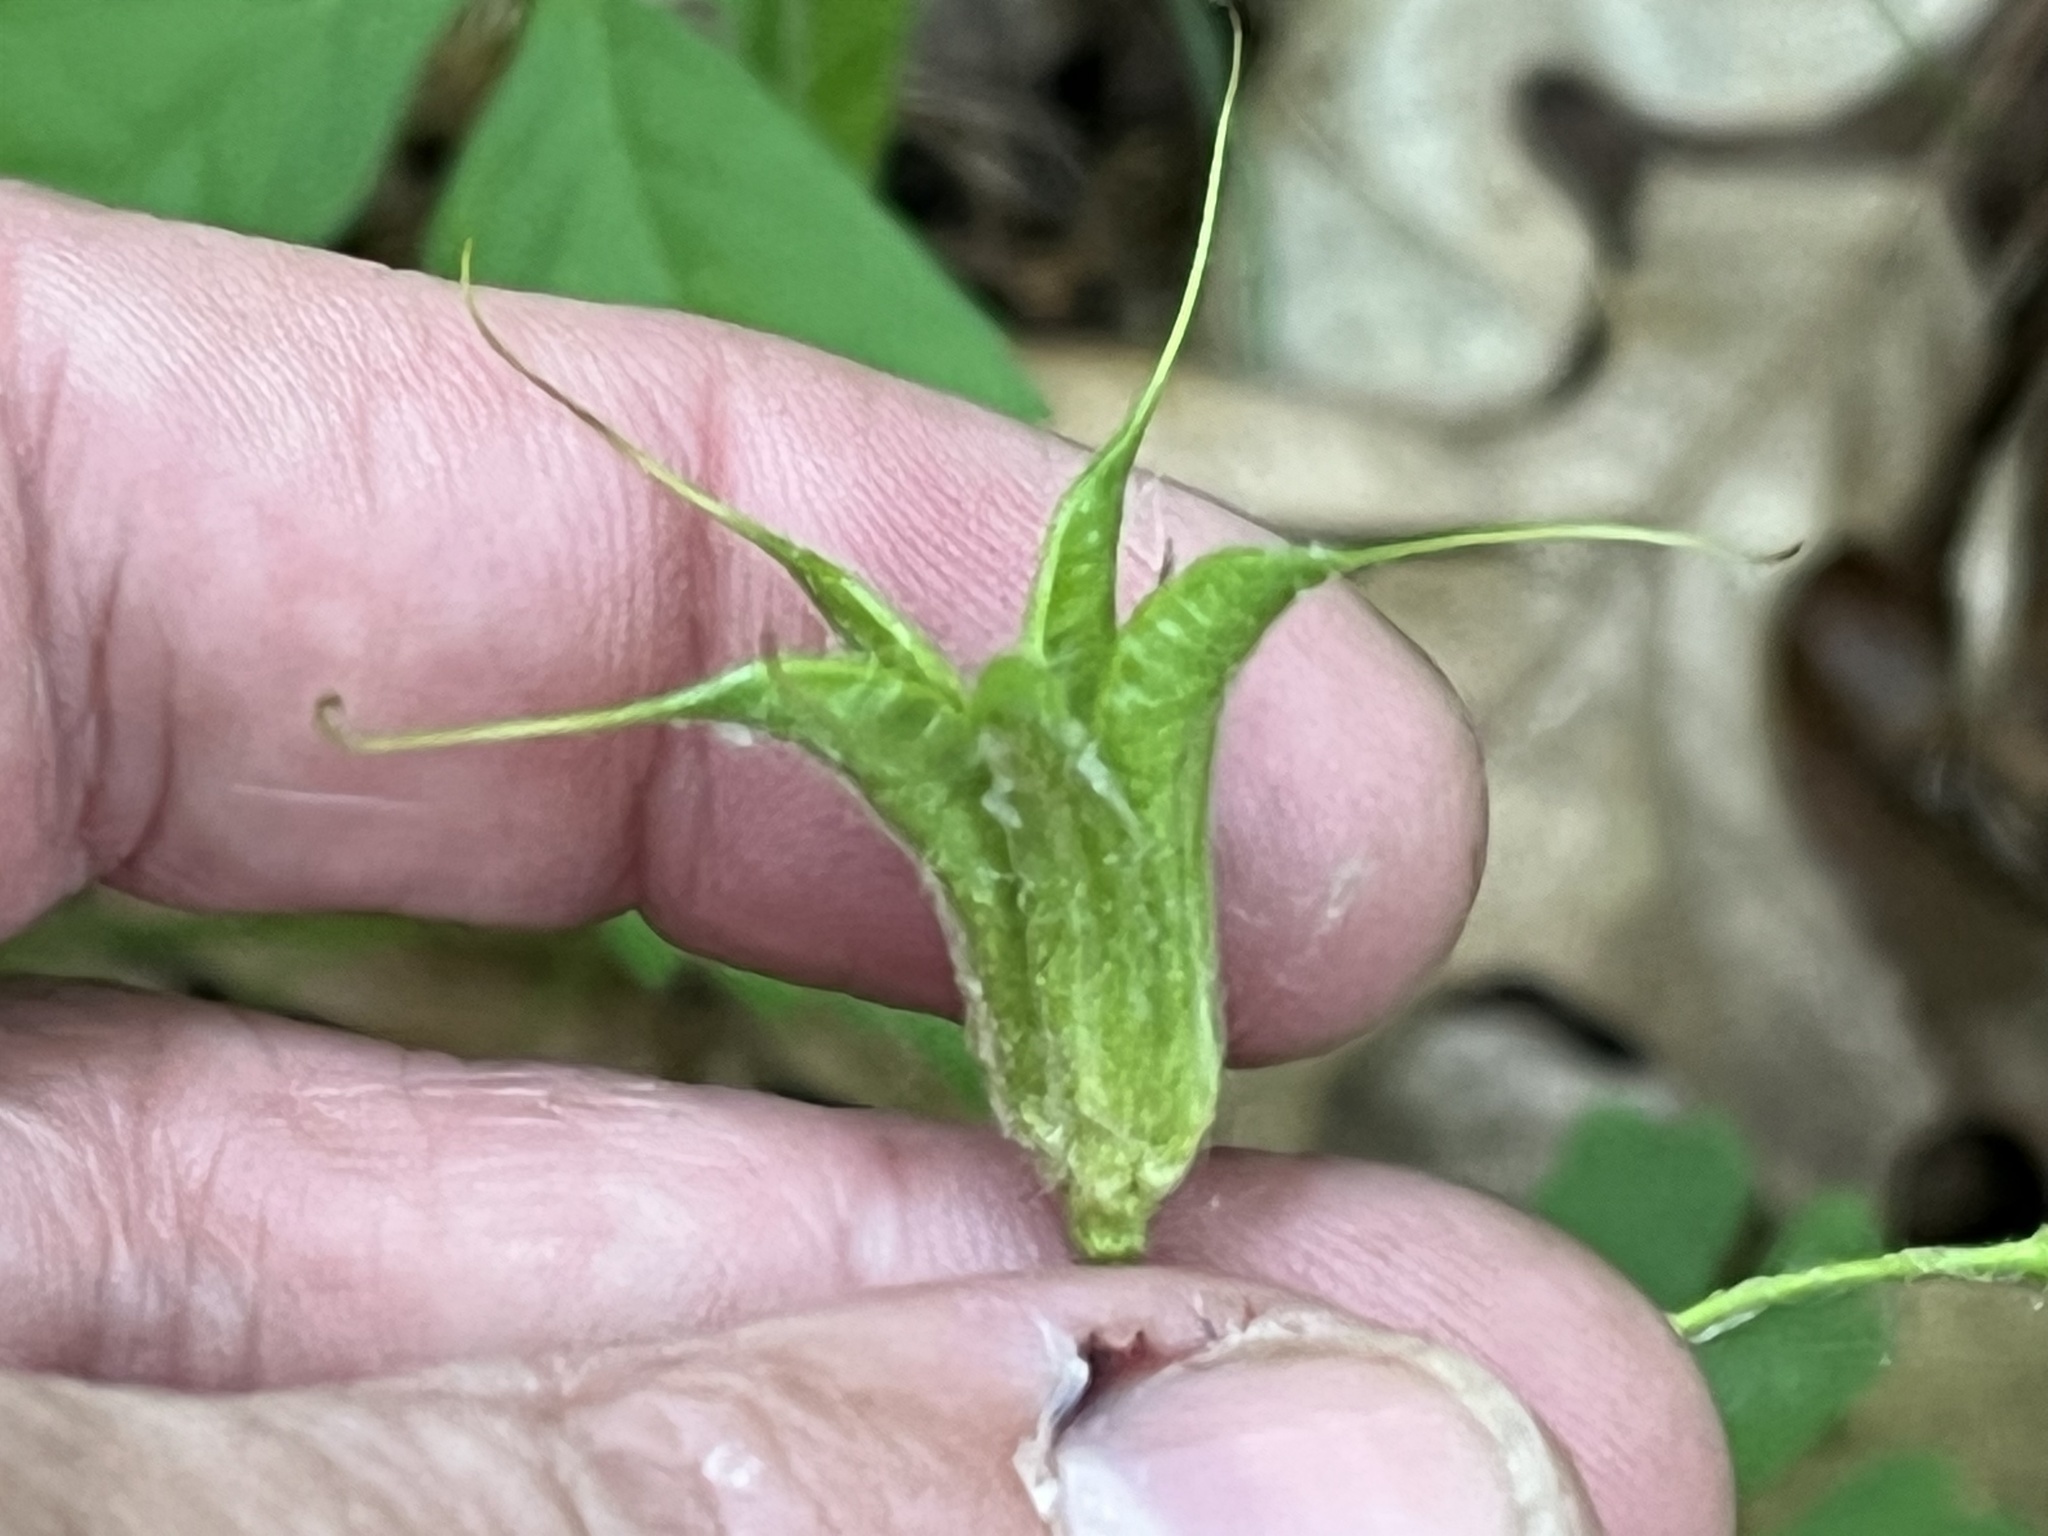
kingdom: Plantae
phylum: Tracheophyta
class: Magnoliopsida
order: Ranunculales
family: Ranunculaceae
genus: Aquilegia
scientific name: Aquilegia canadensis
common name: American columbine
